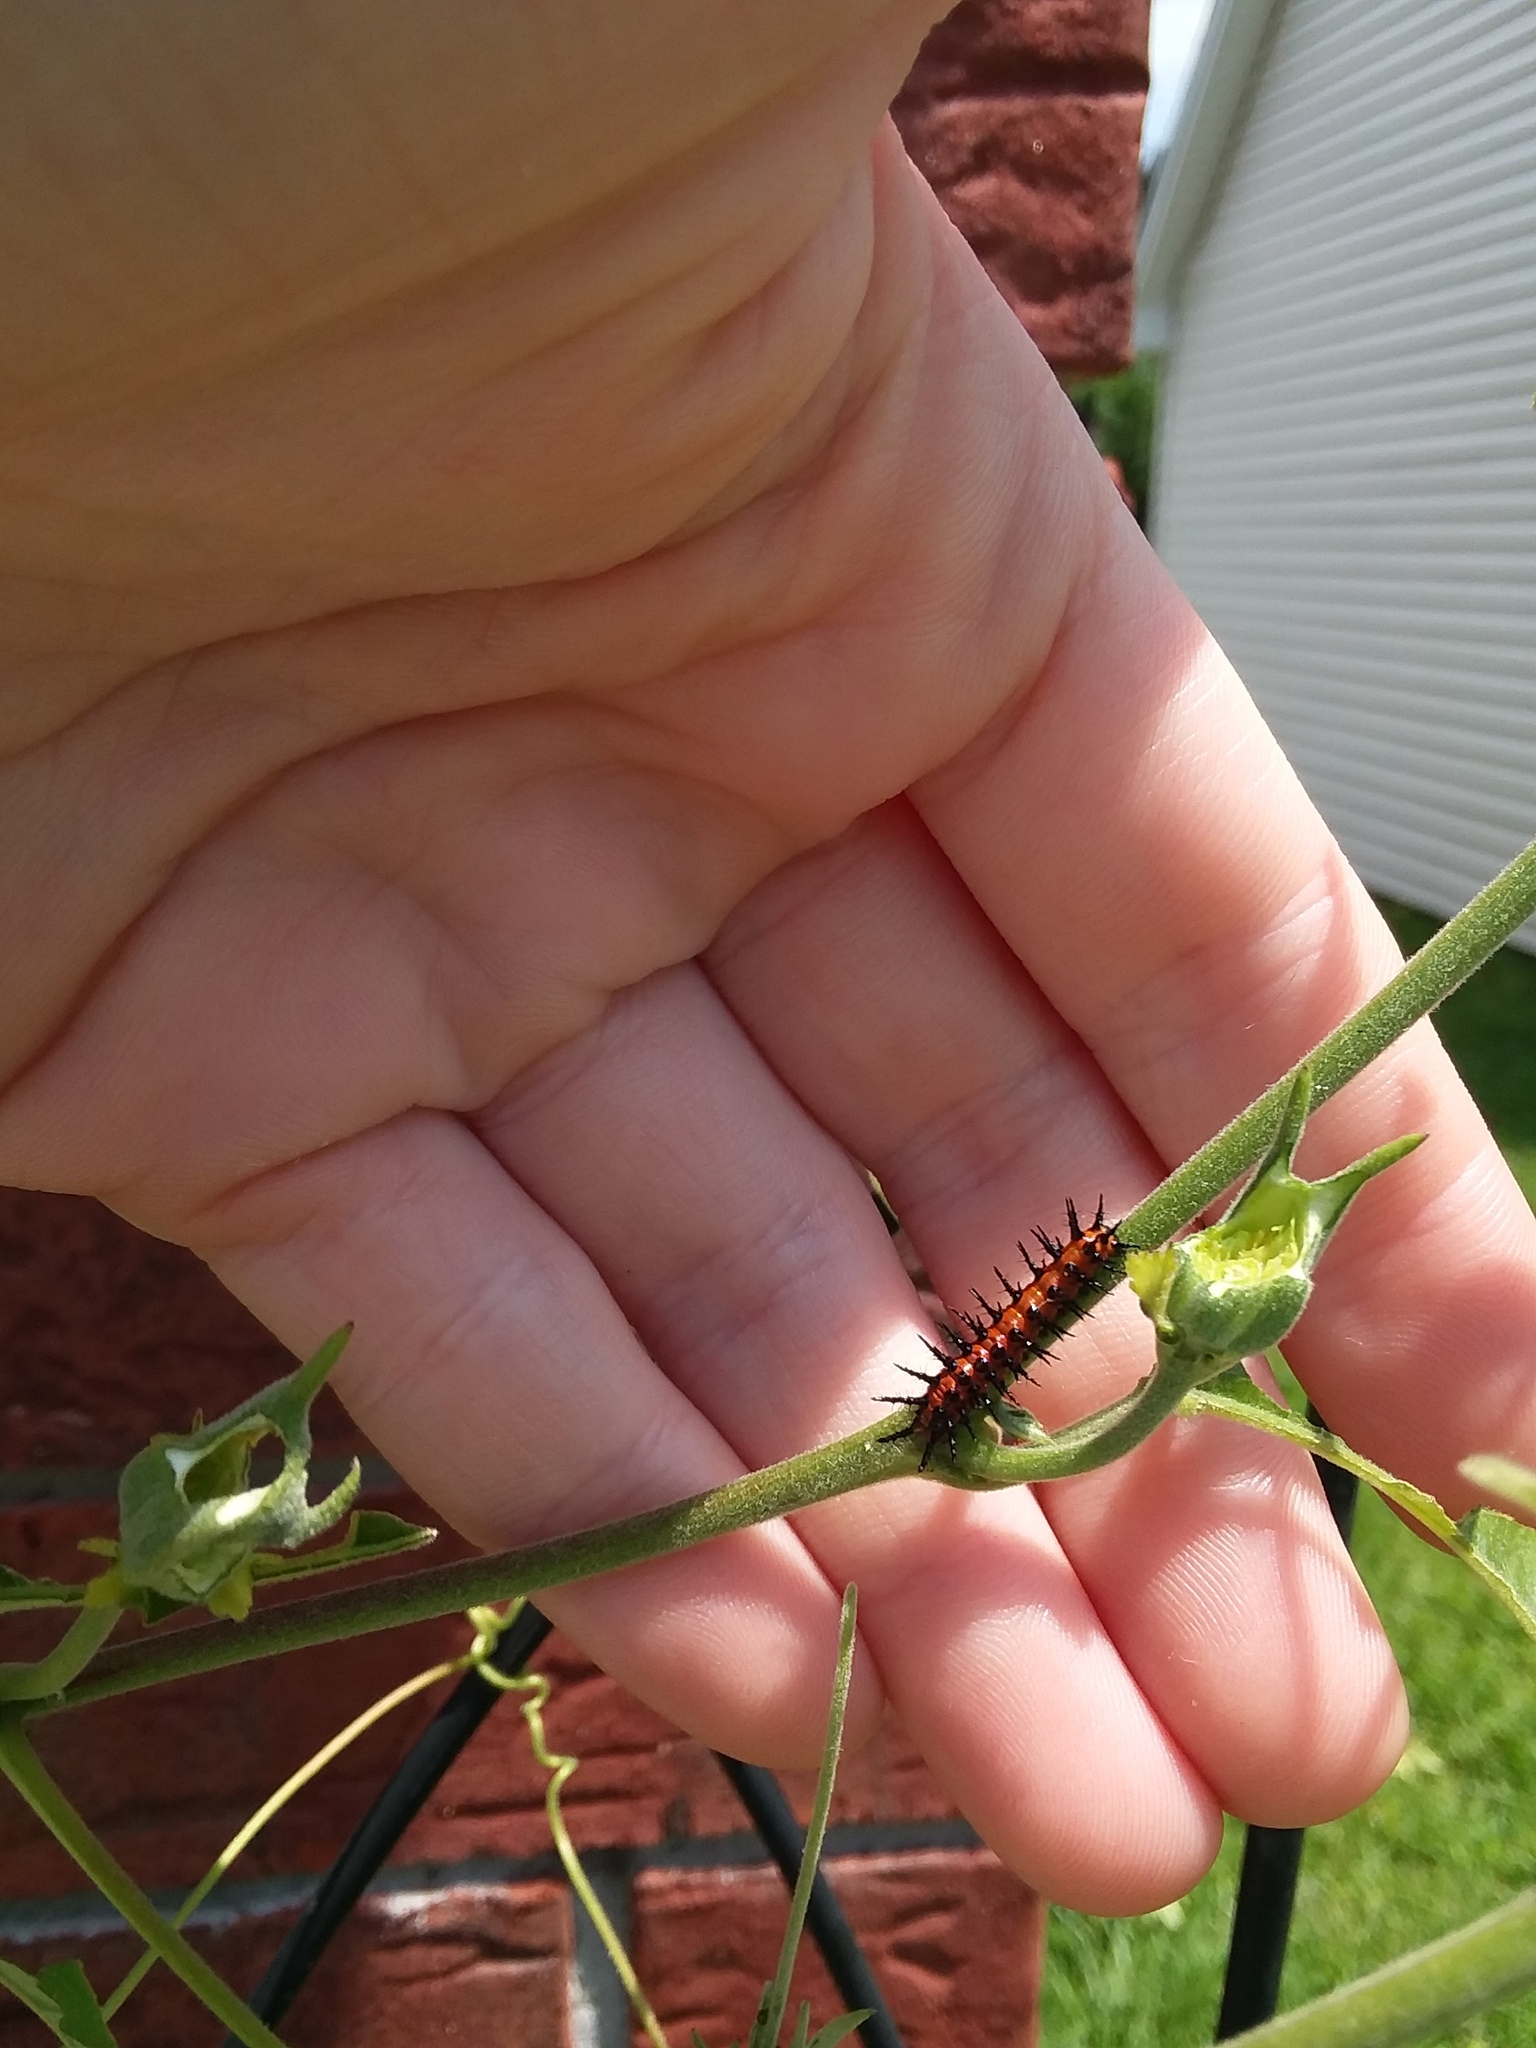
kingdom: Animalia
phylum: Arthropoda
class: Insecta
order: Lepidoptera
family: Nymphalidae
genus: Dione
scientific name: Dione vanillae
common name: Gulf fritillary
